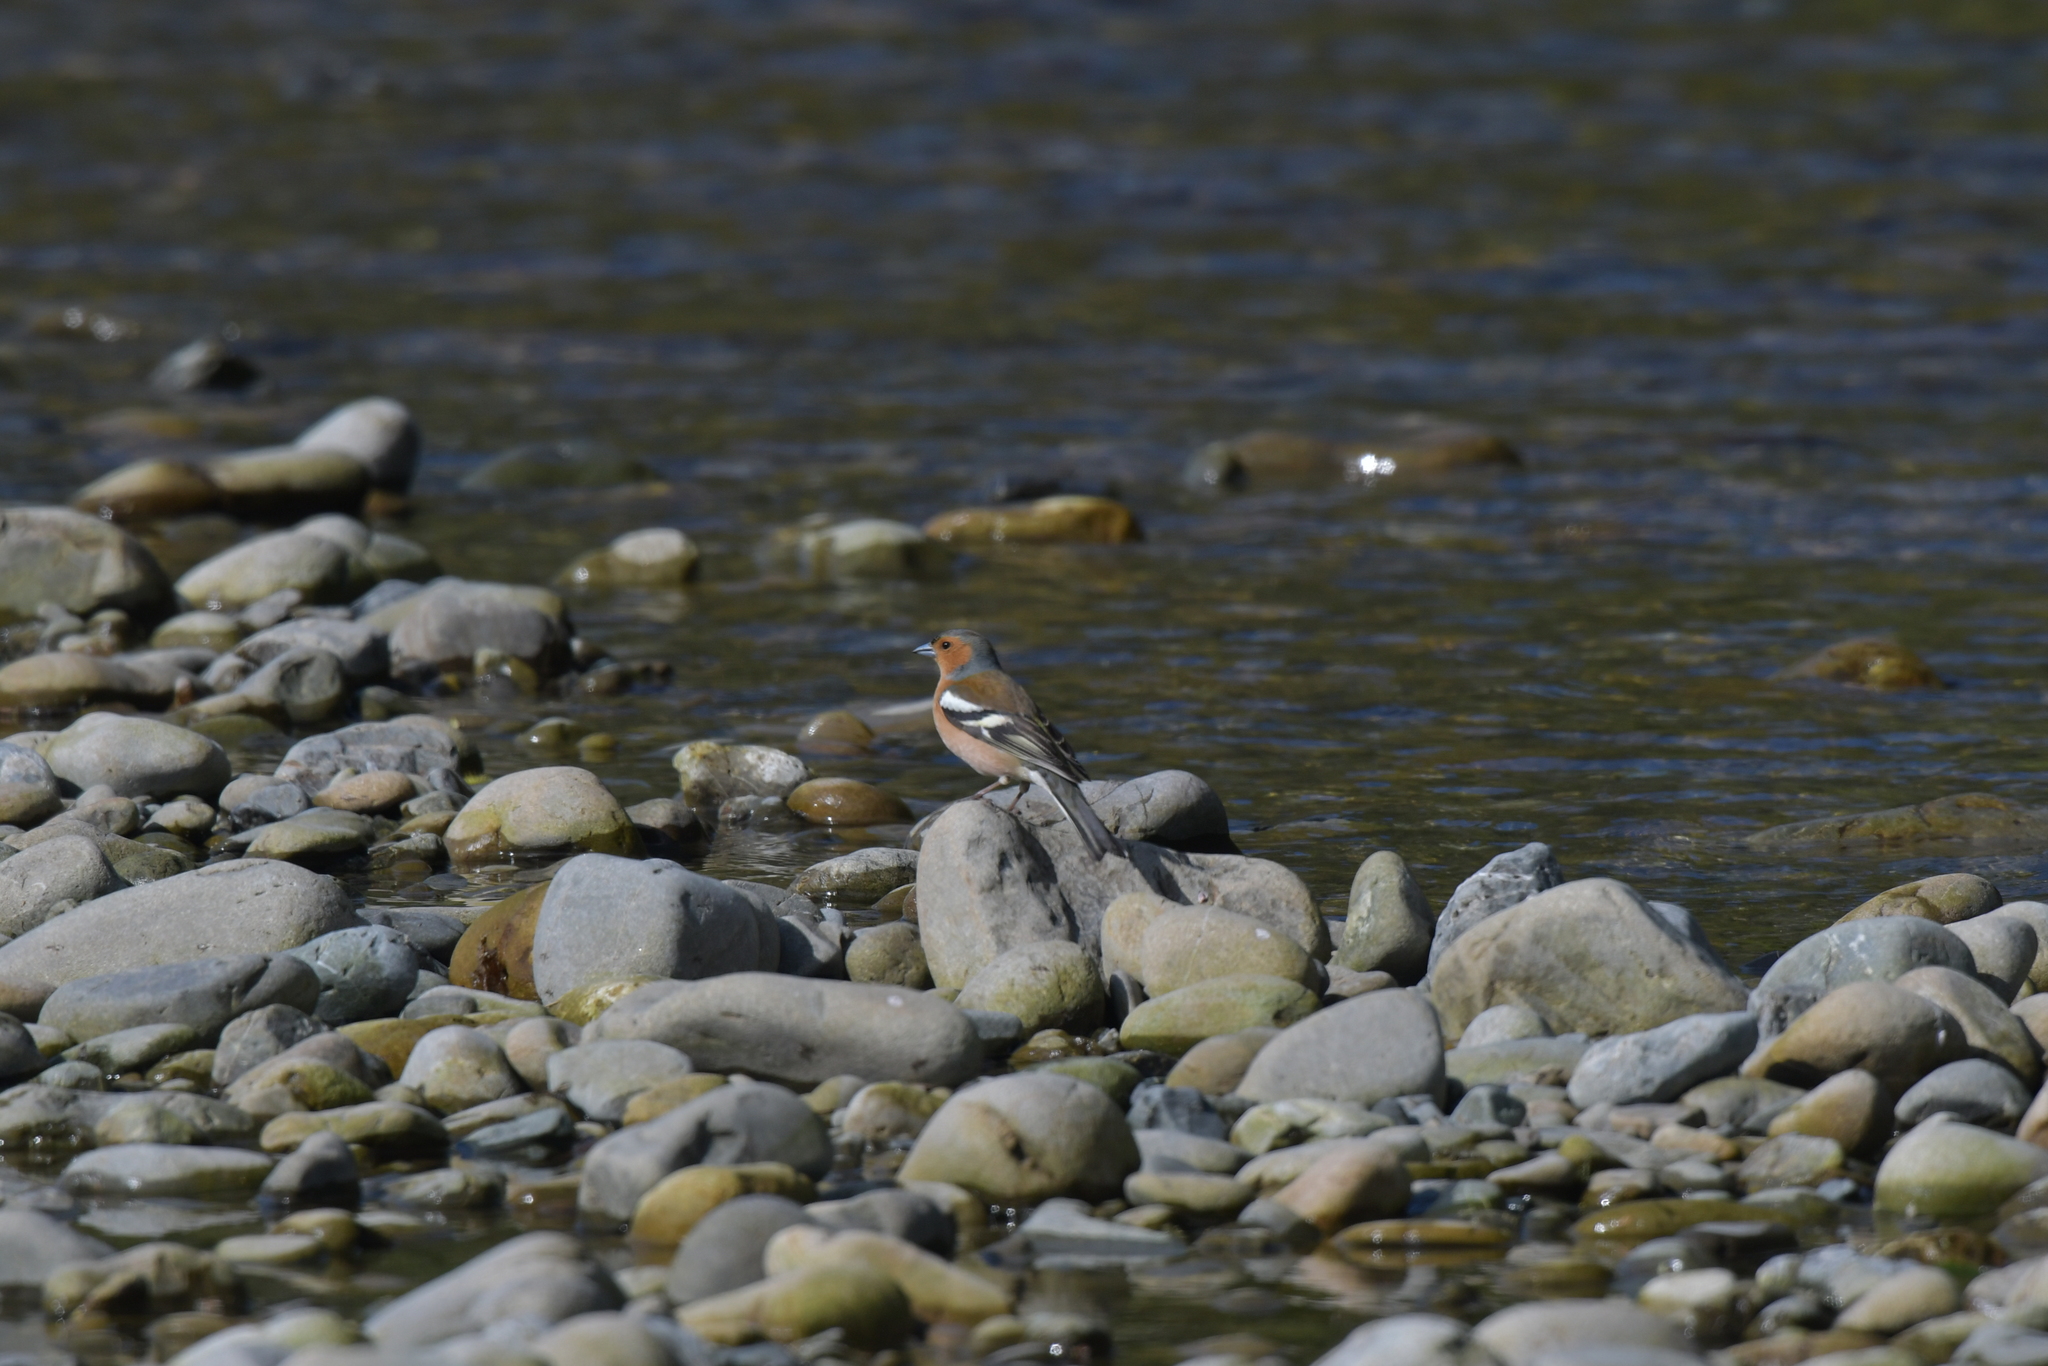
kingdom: Animalia
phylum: Chordata
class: Aves
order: Passeriformes
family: Fringillidae
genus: Fringilla
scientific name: Fringilla coelebs
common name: Common chaffinch
